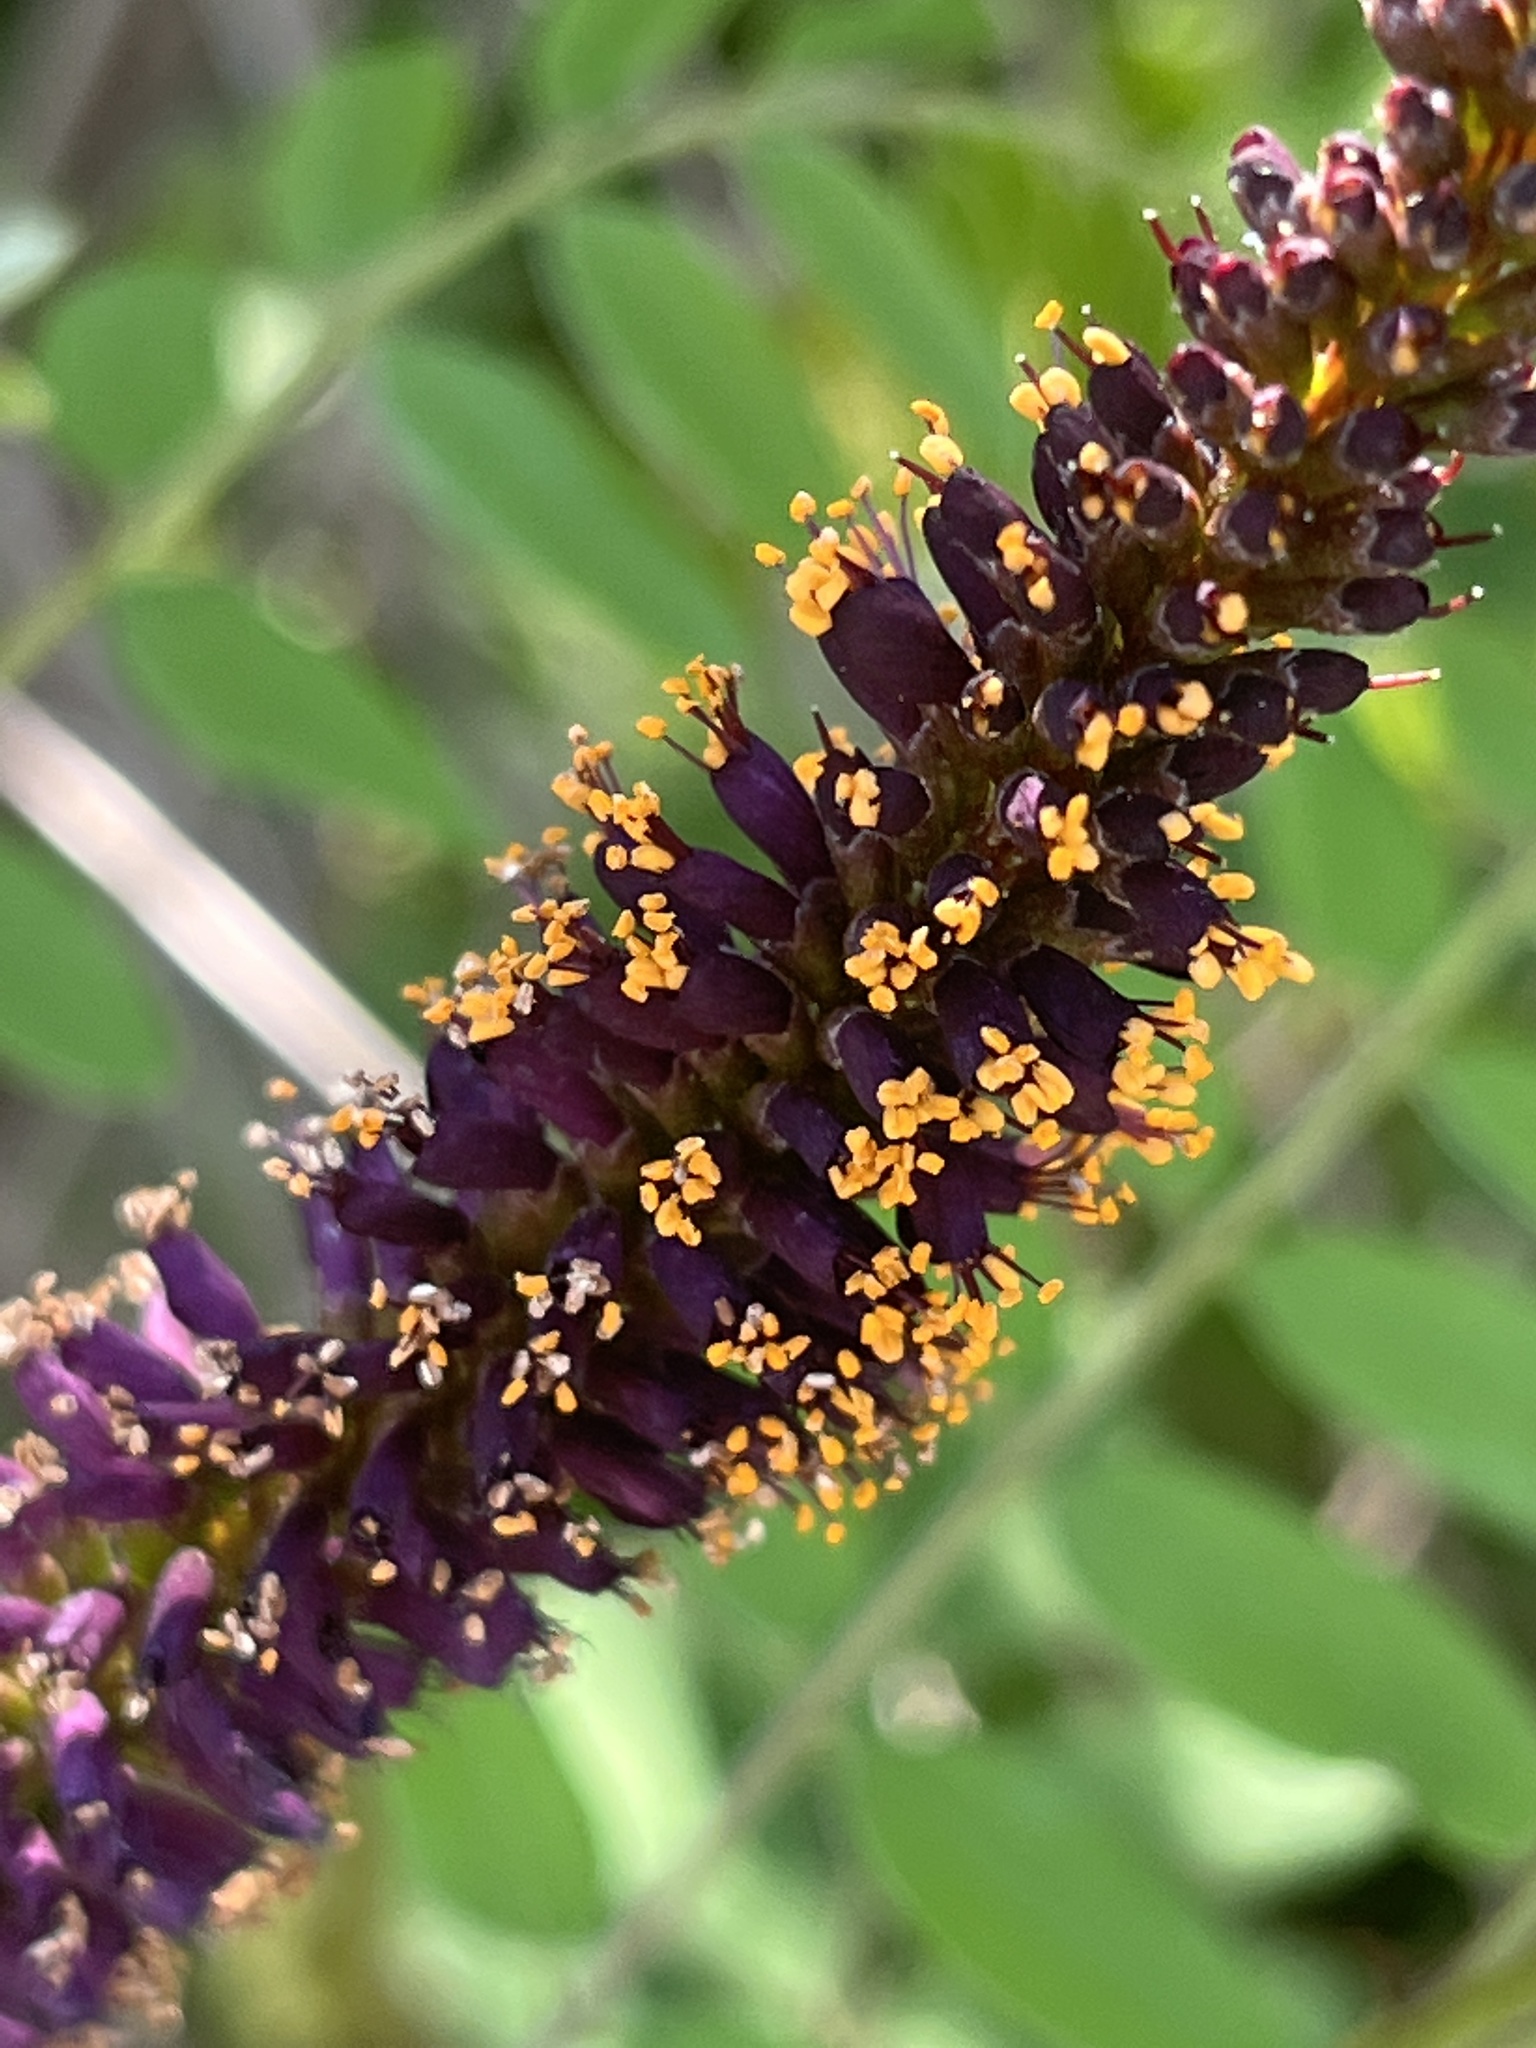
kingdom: Plantae
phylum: Tracheophyta
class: Magnoliopsida
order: Fabales
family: Fabaceae
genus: Amorpha
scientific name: Amorpha fruticosa
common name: False indigo
